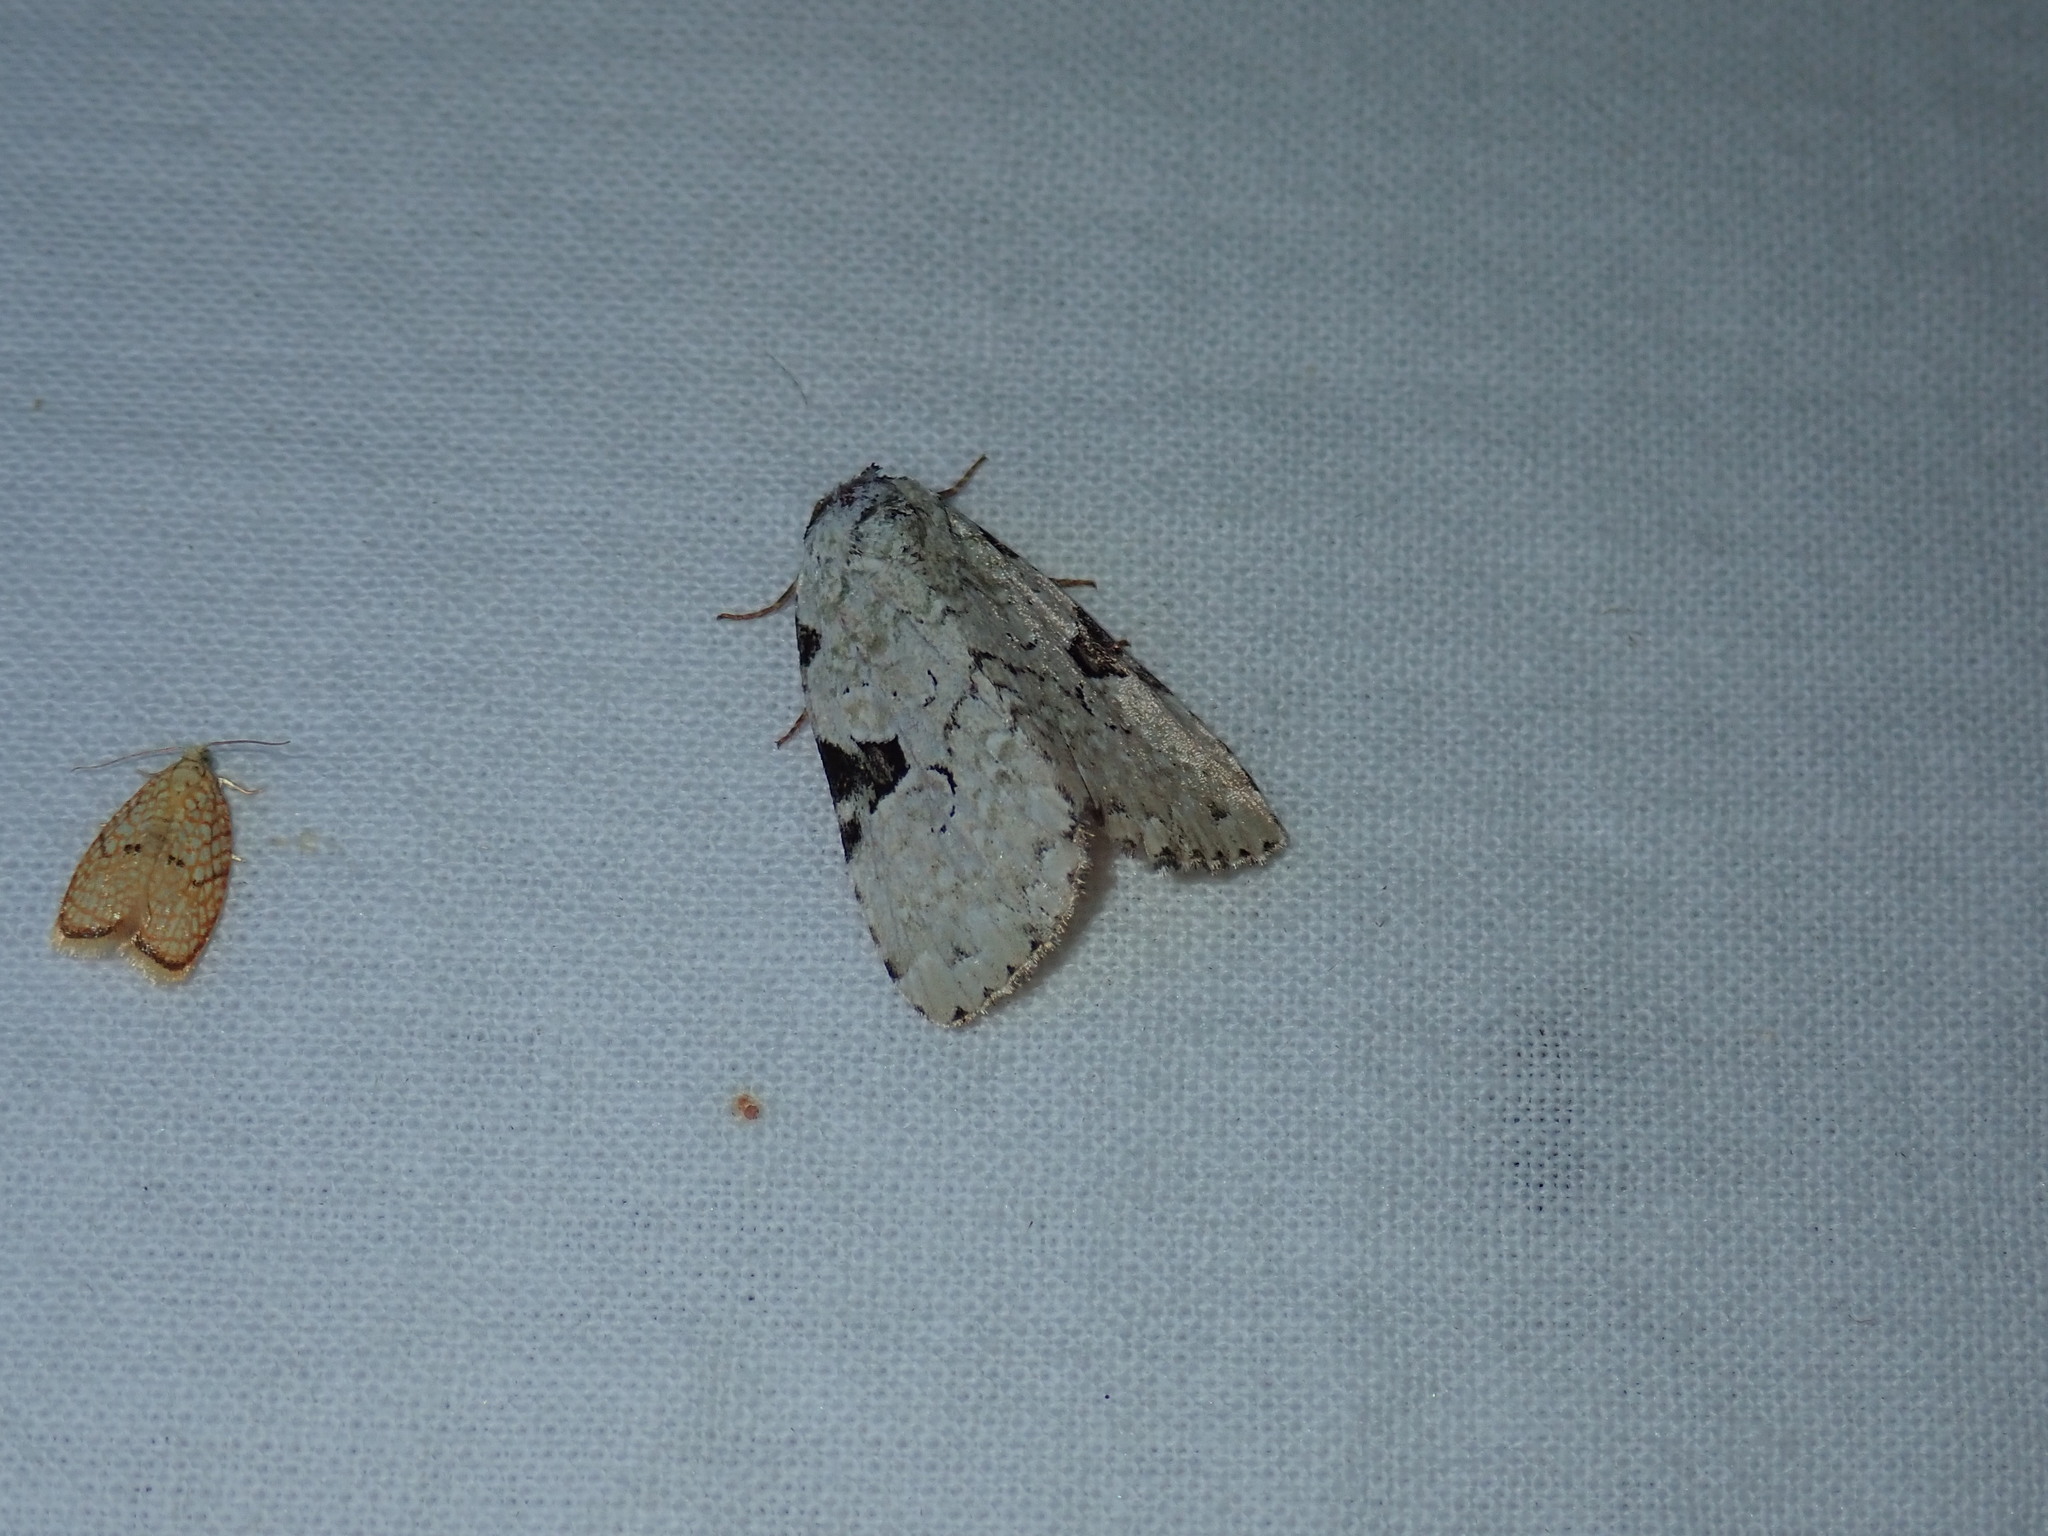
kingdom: Animalia
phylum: Arthropoda
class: Insecta
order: Lepidoptera
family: Noctuidae
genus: Leuconycta
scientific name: Leuconycta diphteroides
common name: Green leuconycta moth
